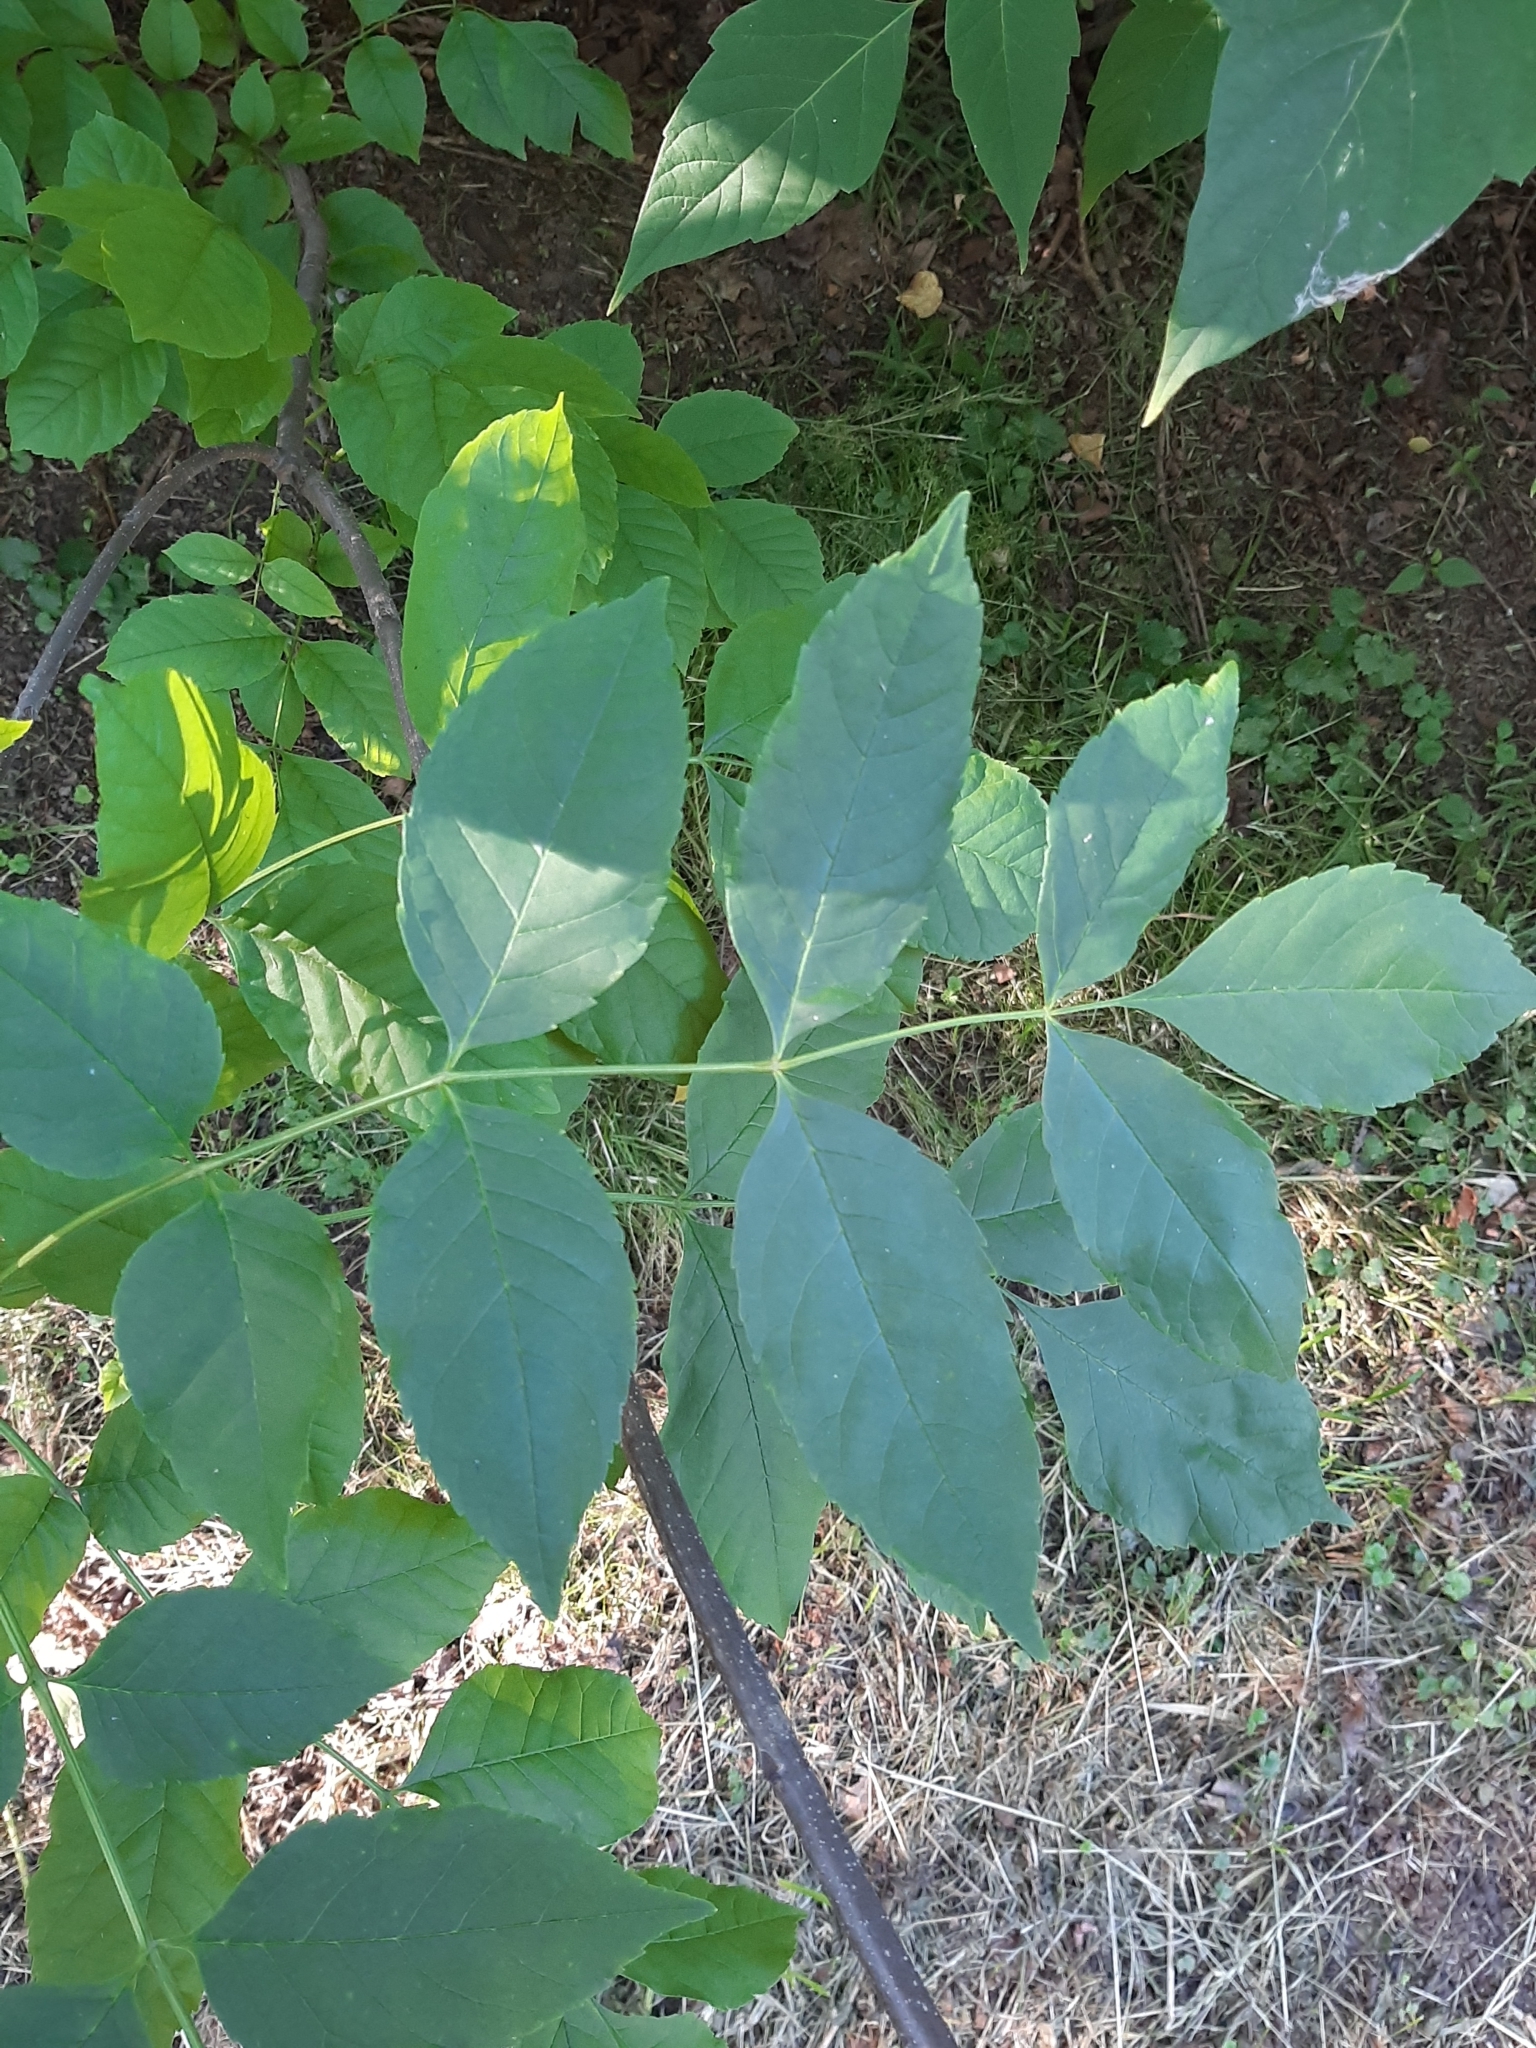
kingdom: Plantae
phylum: Tracheophyta
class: Magnoliopsida
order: Lamiales
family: Oleaceae
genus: Fraxinus
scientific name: Fraxinus pennsylvanica
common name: Green ash
